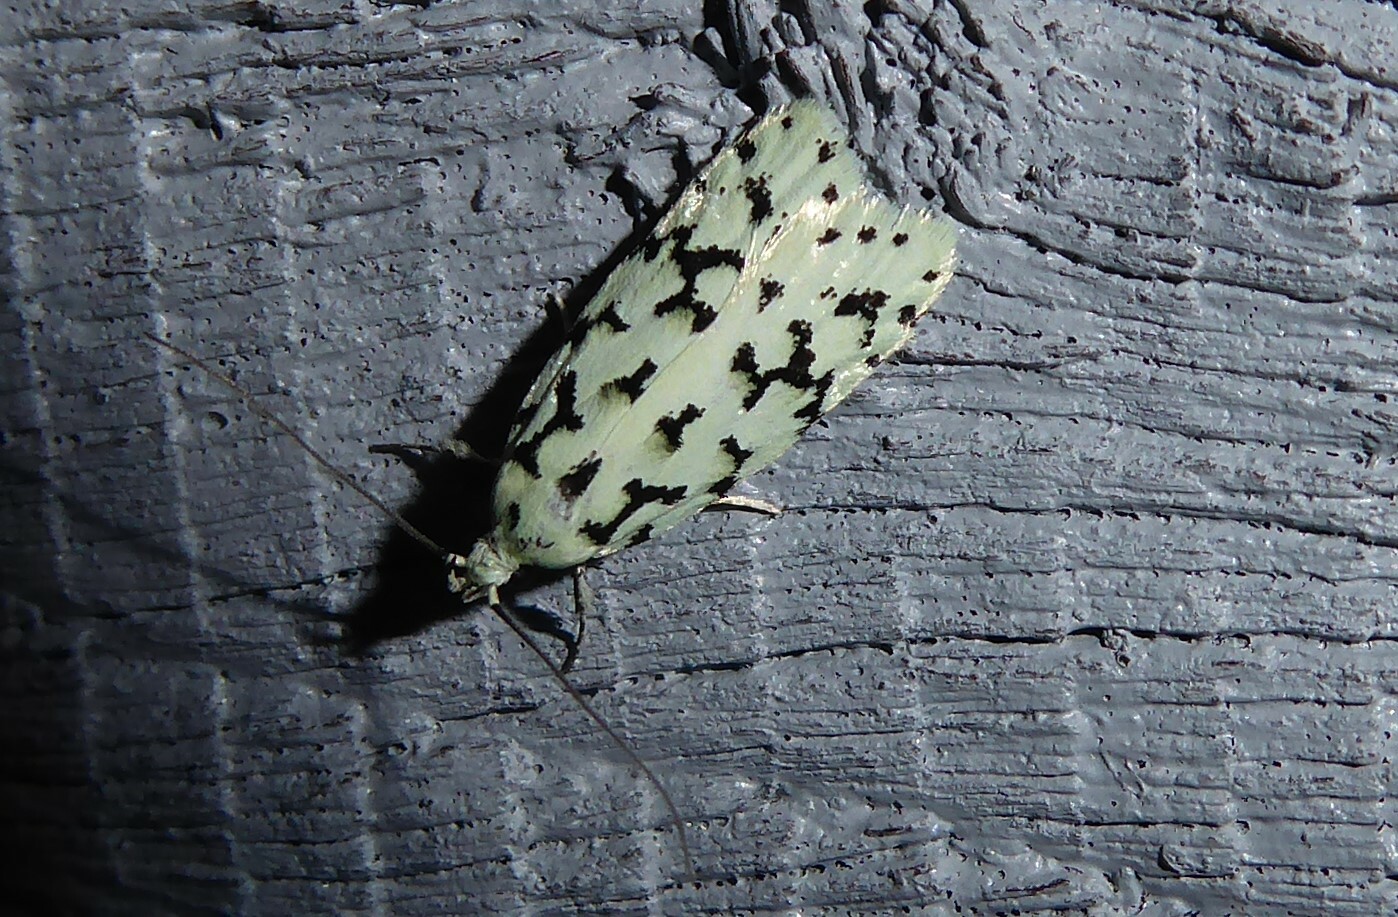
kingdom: Animalia
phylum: Arthropoda
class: Insecta
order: Lepidoptera
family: Oecophoridae
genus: Izatha
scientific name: Izatha huttoni
